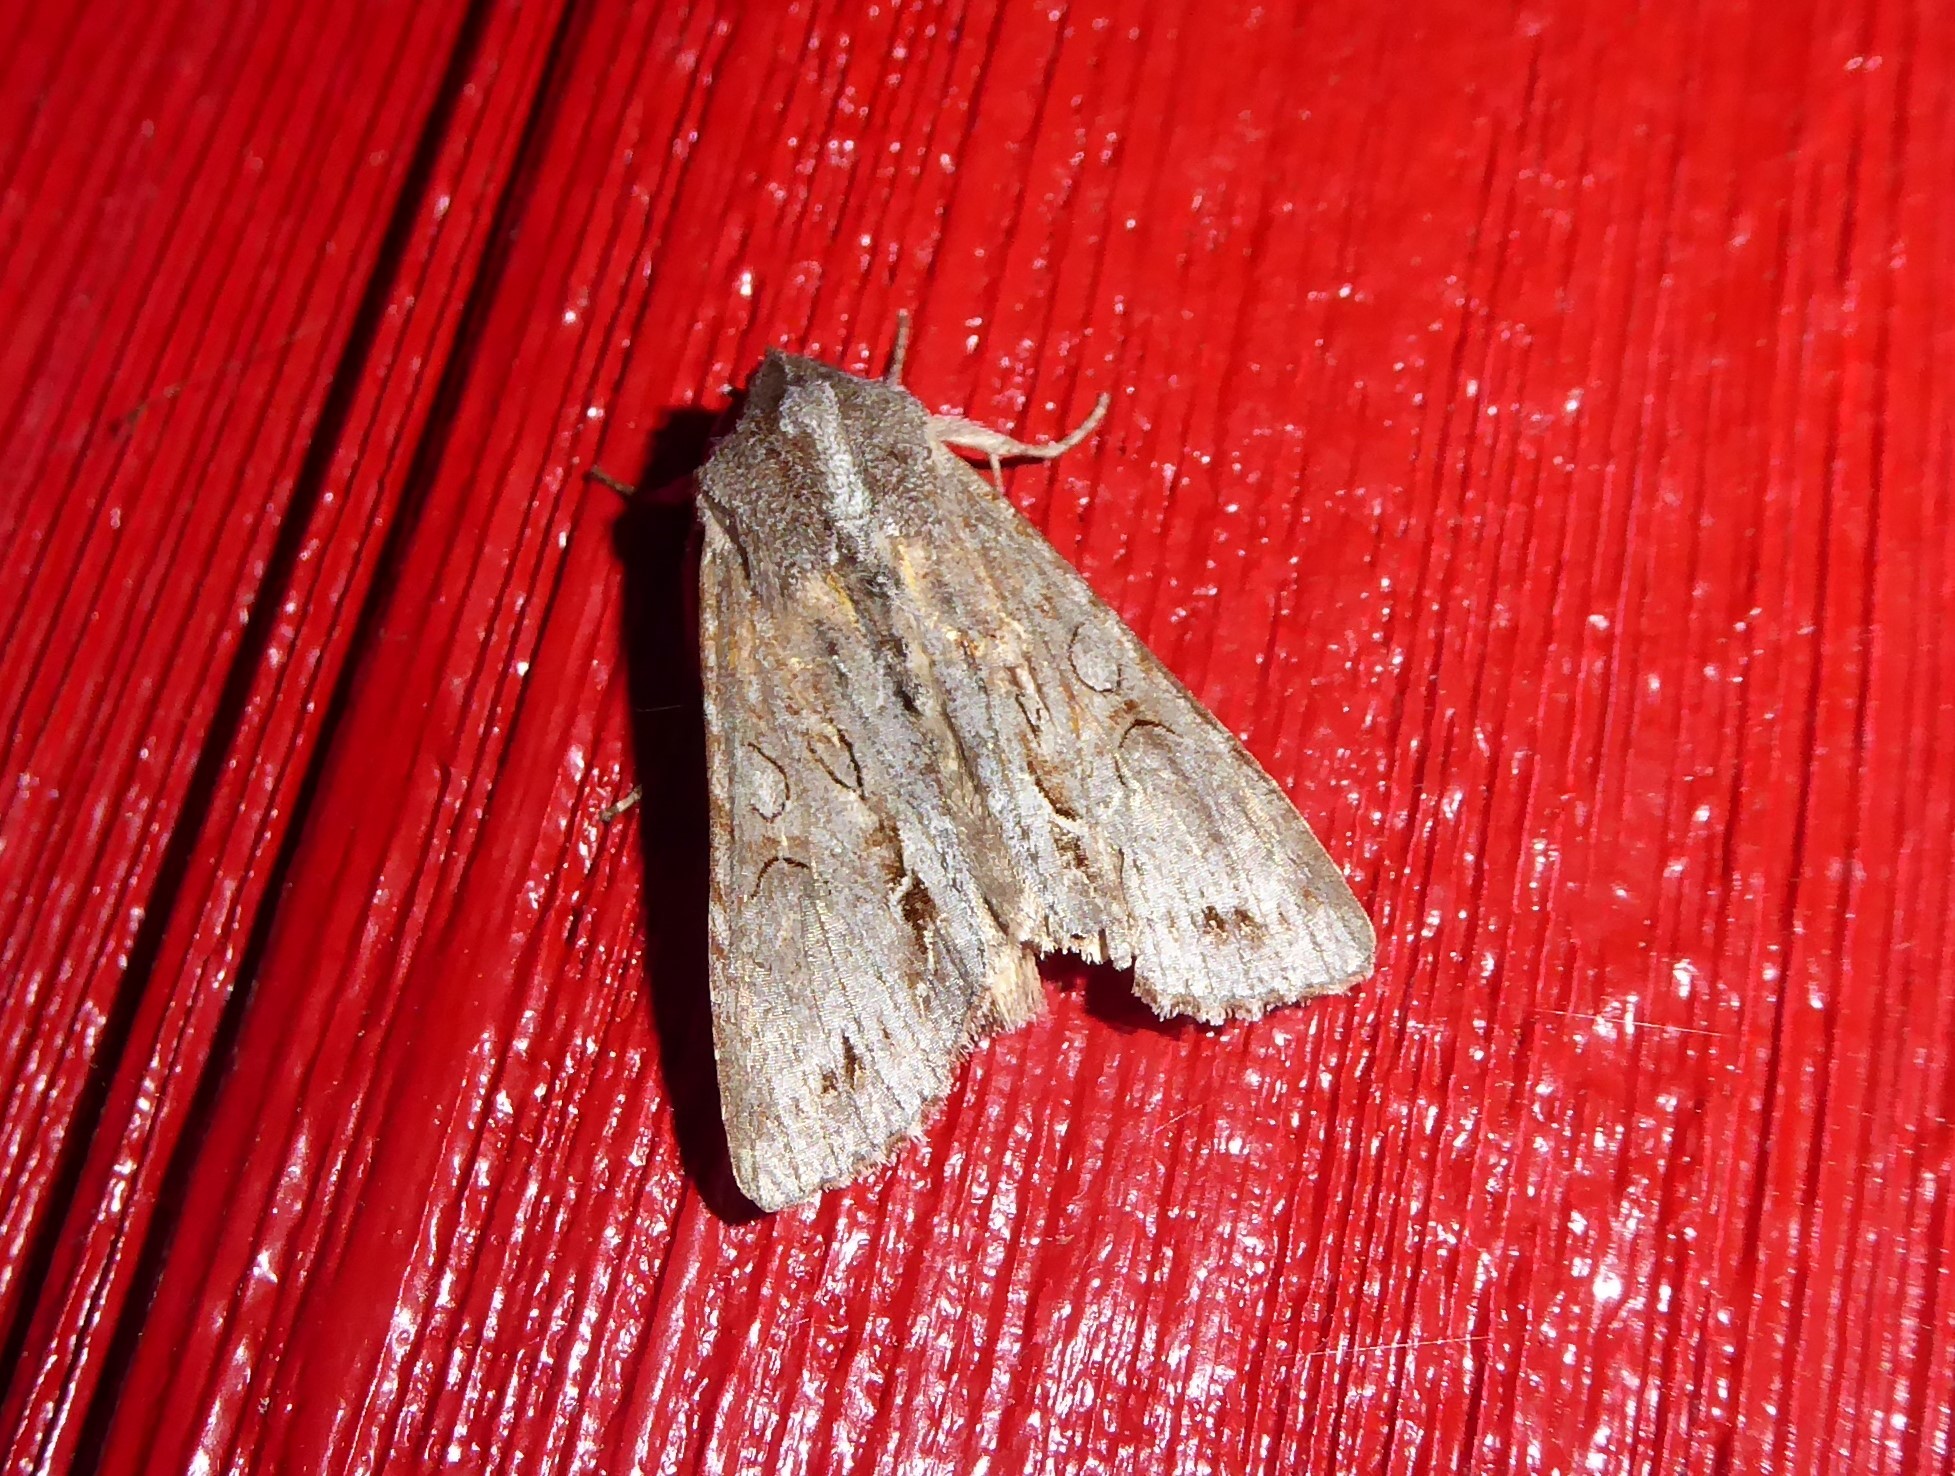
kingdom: Animalia
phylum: Arthropoda
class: Insecta
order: Lepidoptera
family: Noctuidae
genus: Ichneutica
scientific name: Ichneutica
